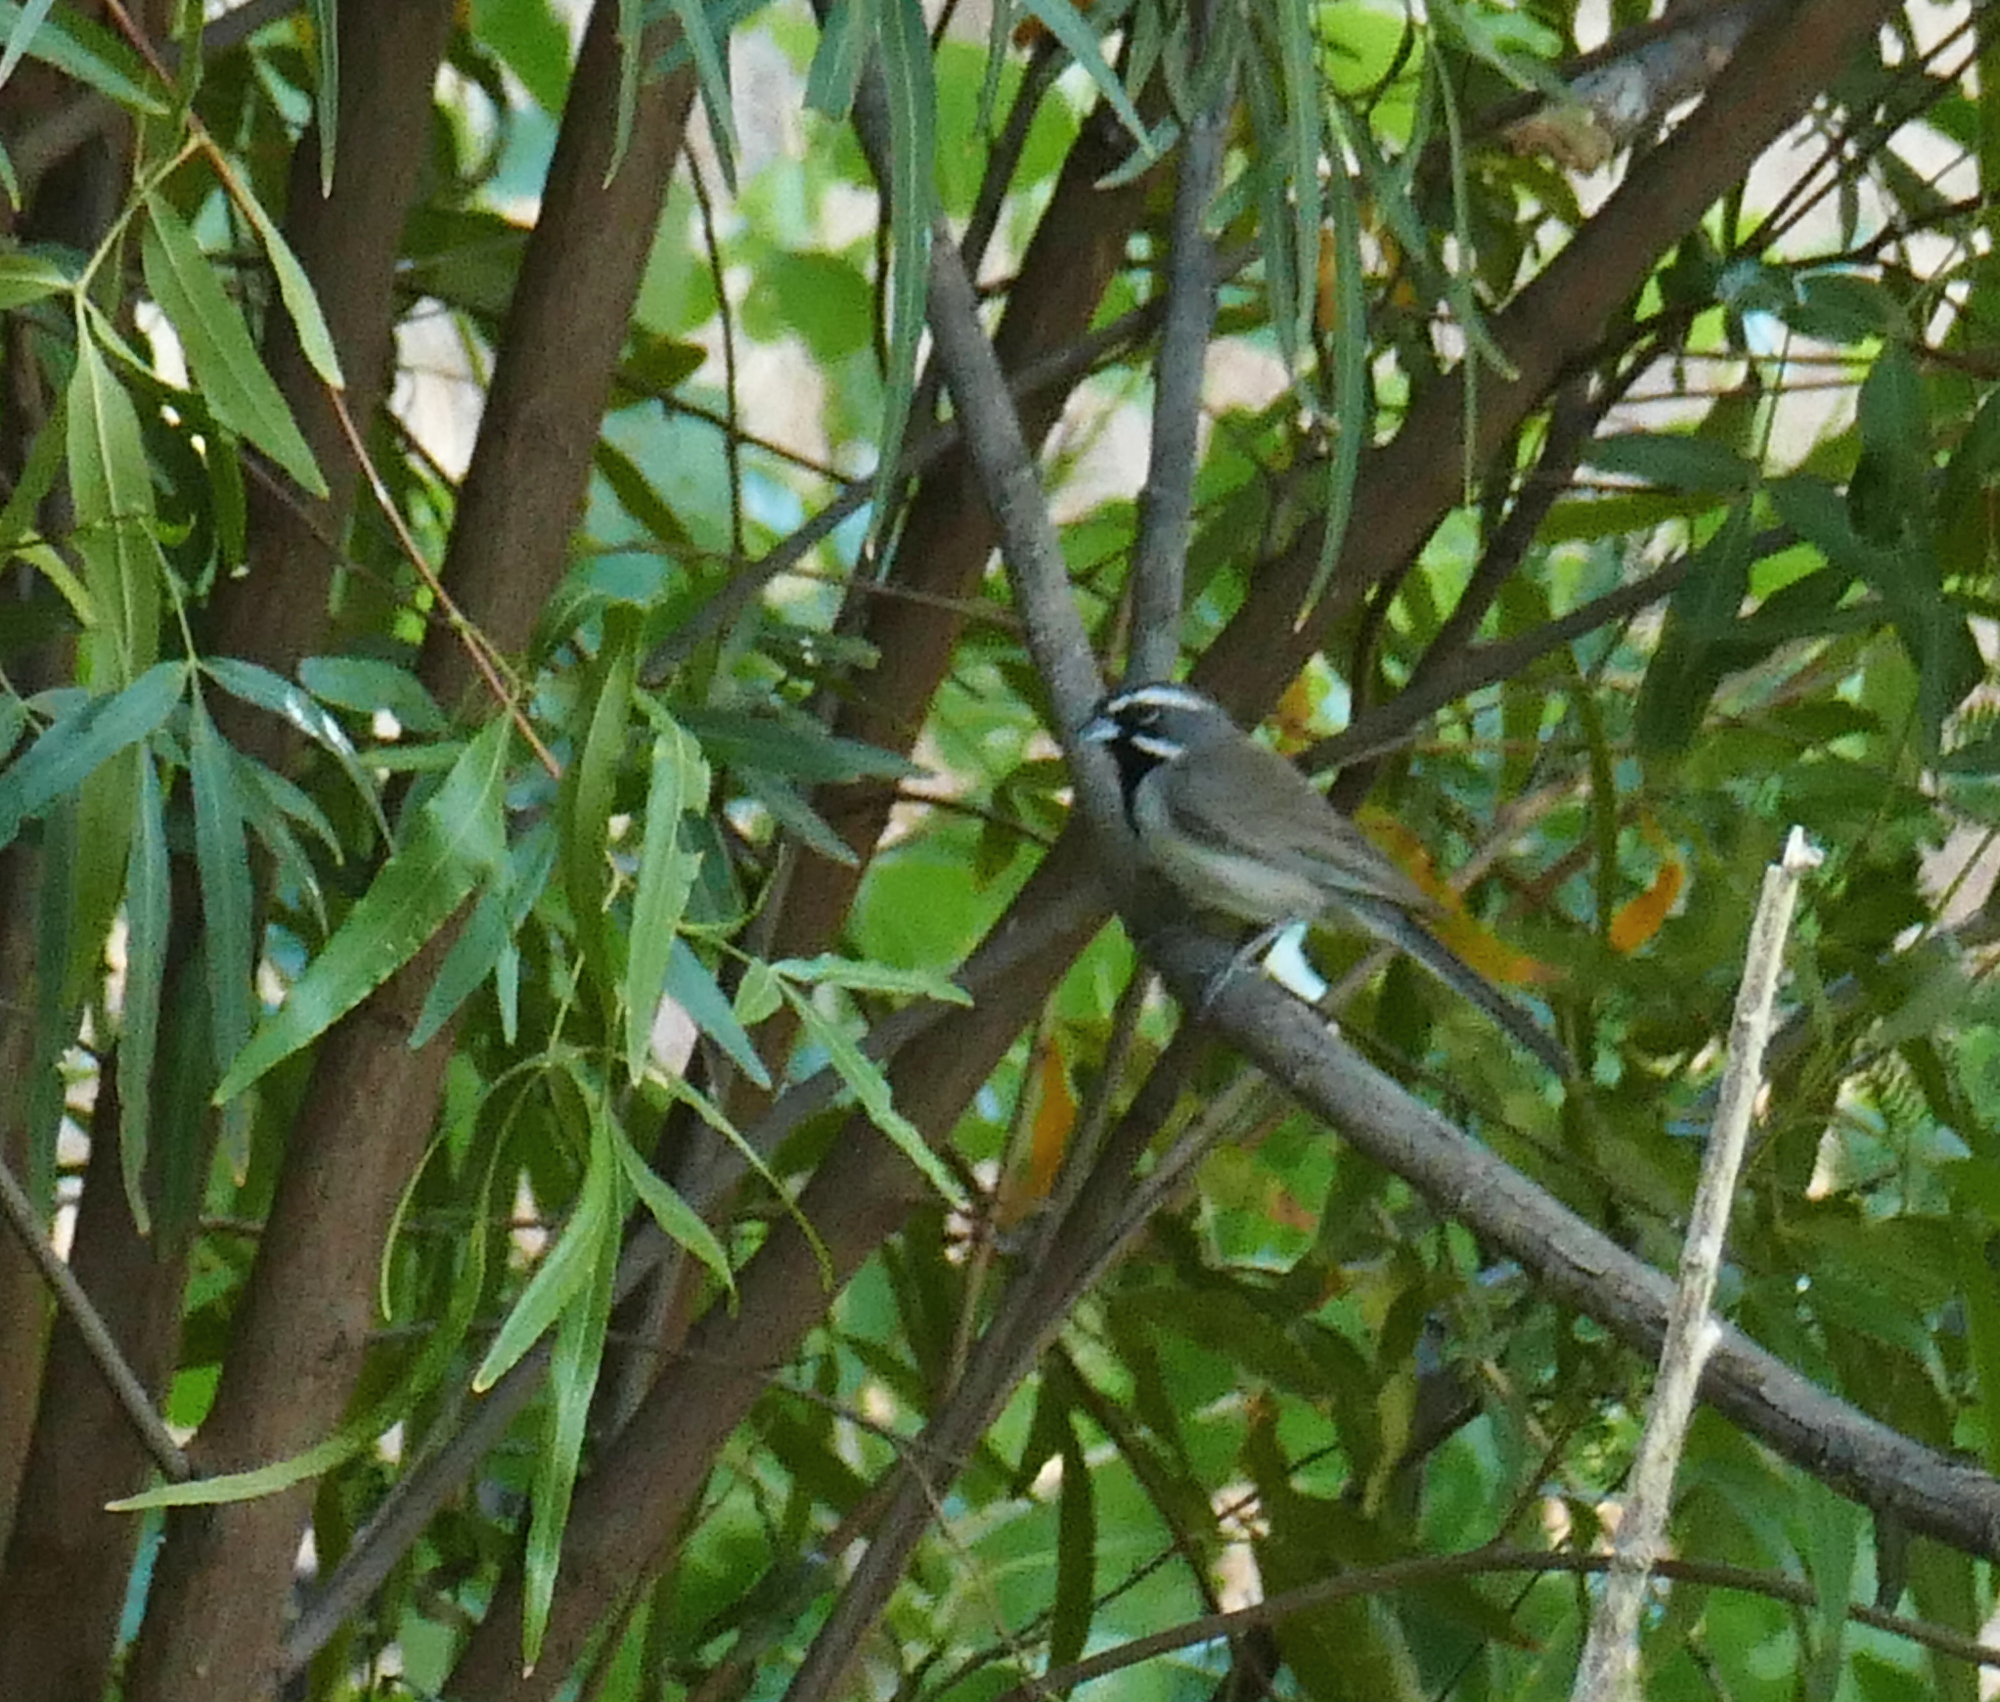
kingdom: Animalia
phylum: Chordata
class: Aves
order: Passeriformes
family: Passerellidae
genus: Amphispiza
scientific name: Amphispiza bilineata
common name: Black-throated sparrow
